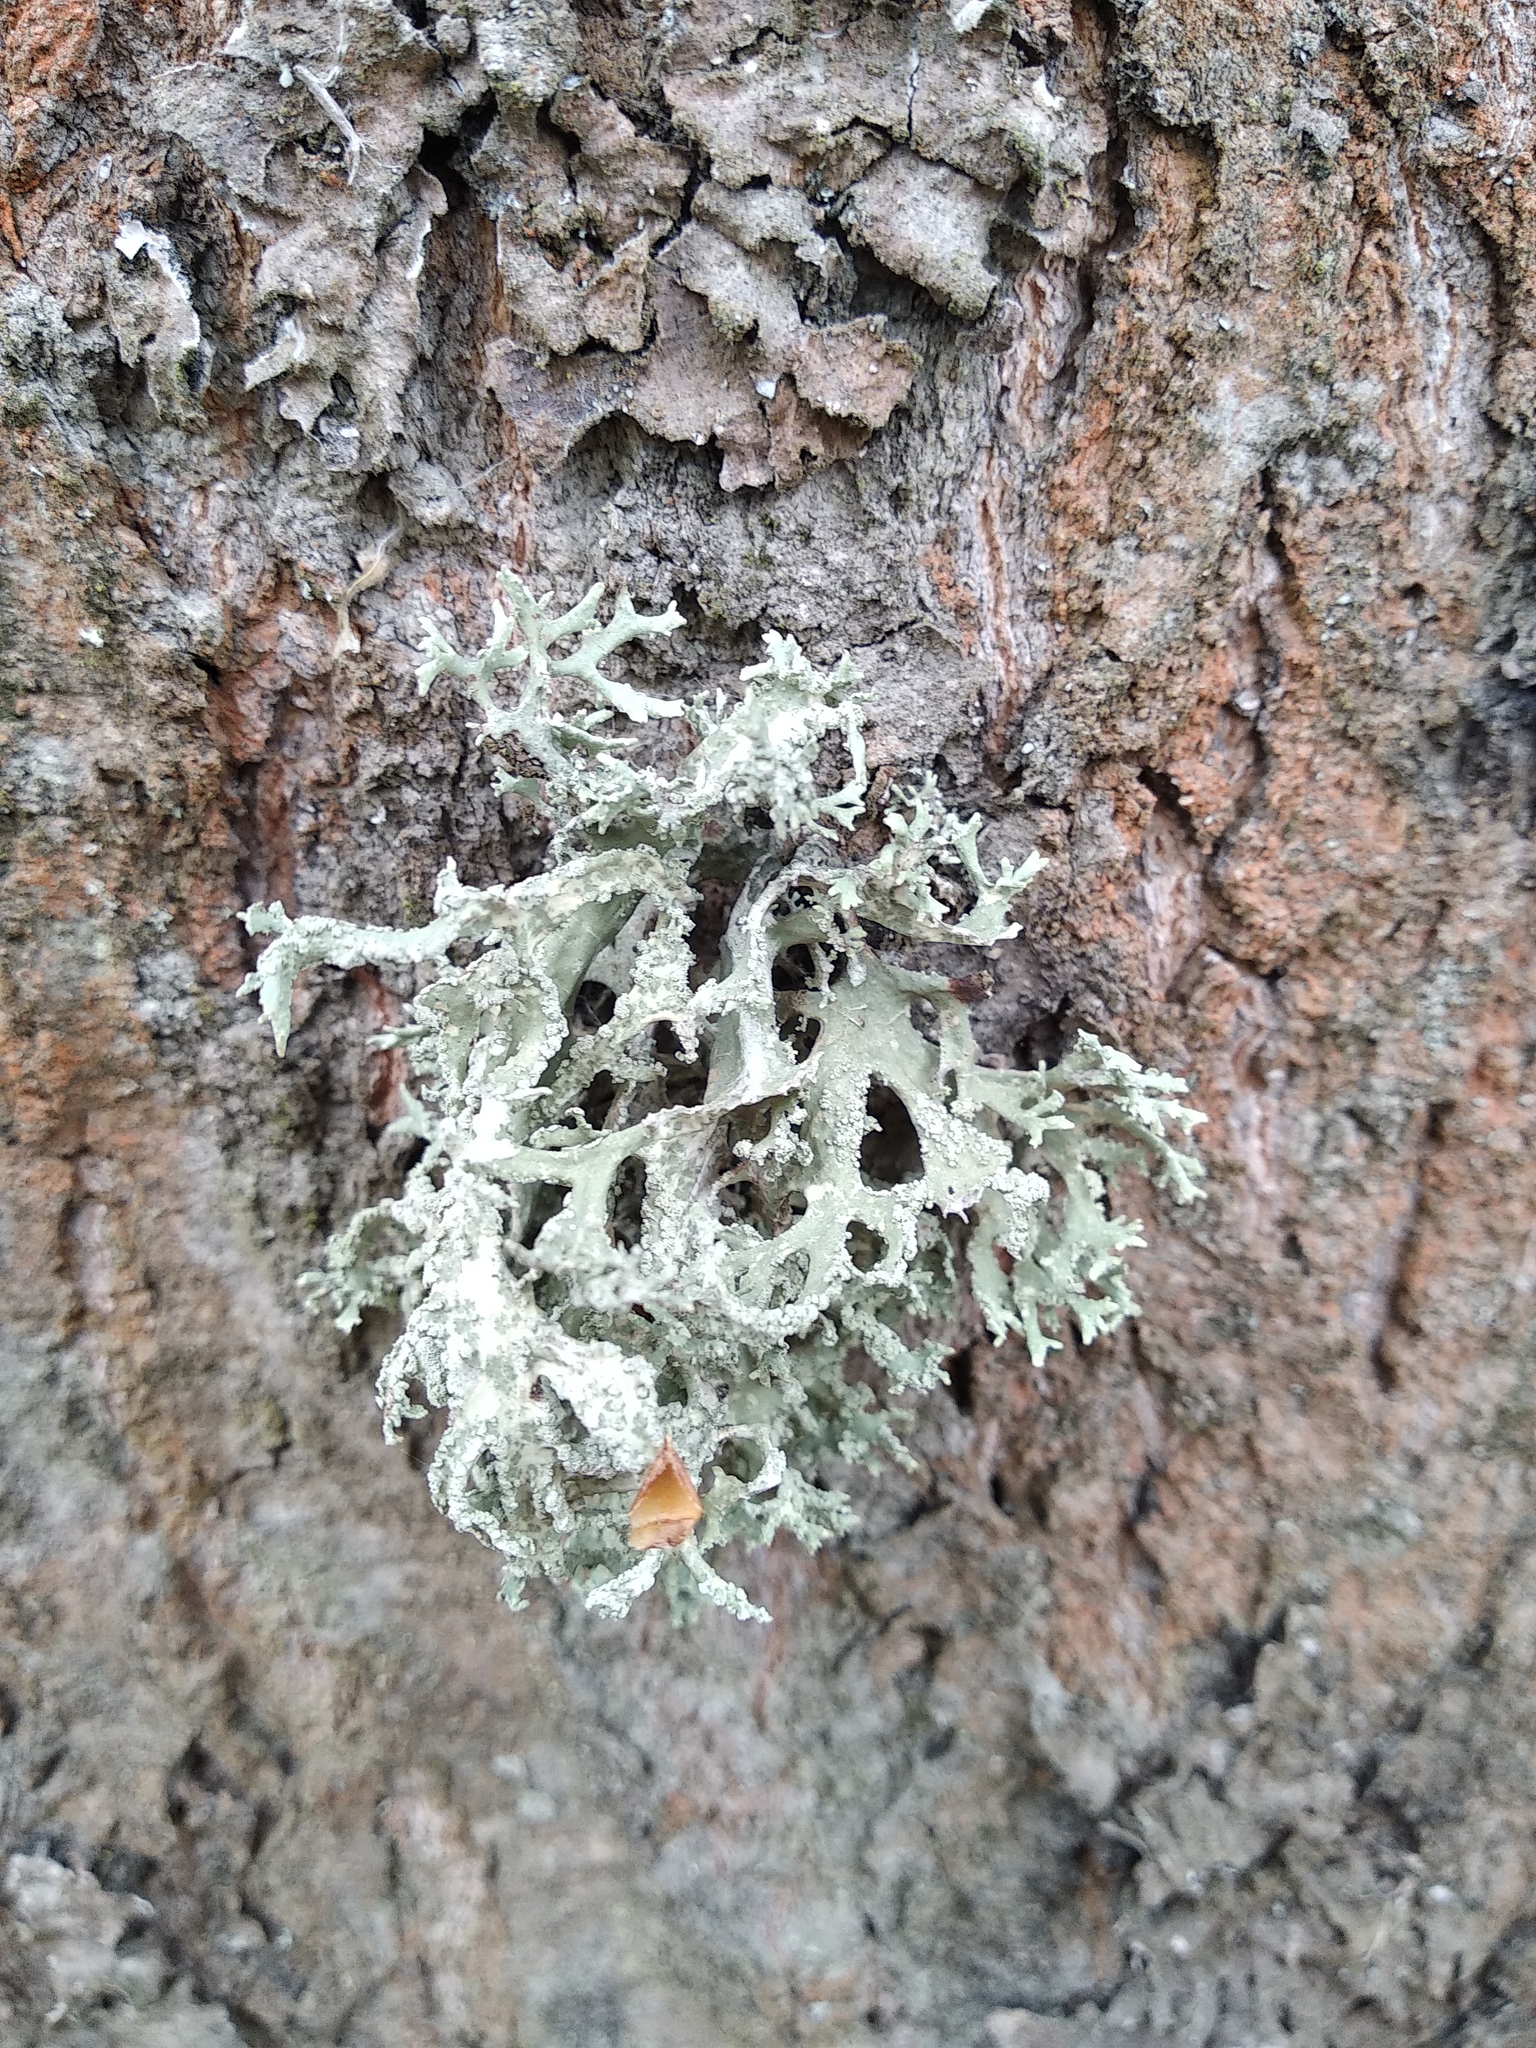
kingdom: Fungi
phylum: Ascomycota
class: Lecanoromycetes
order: Lecanorales
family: Parmeliaceae
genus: Evernia
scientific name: Evernia prunastri
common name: Oak moss
